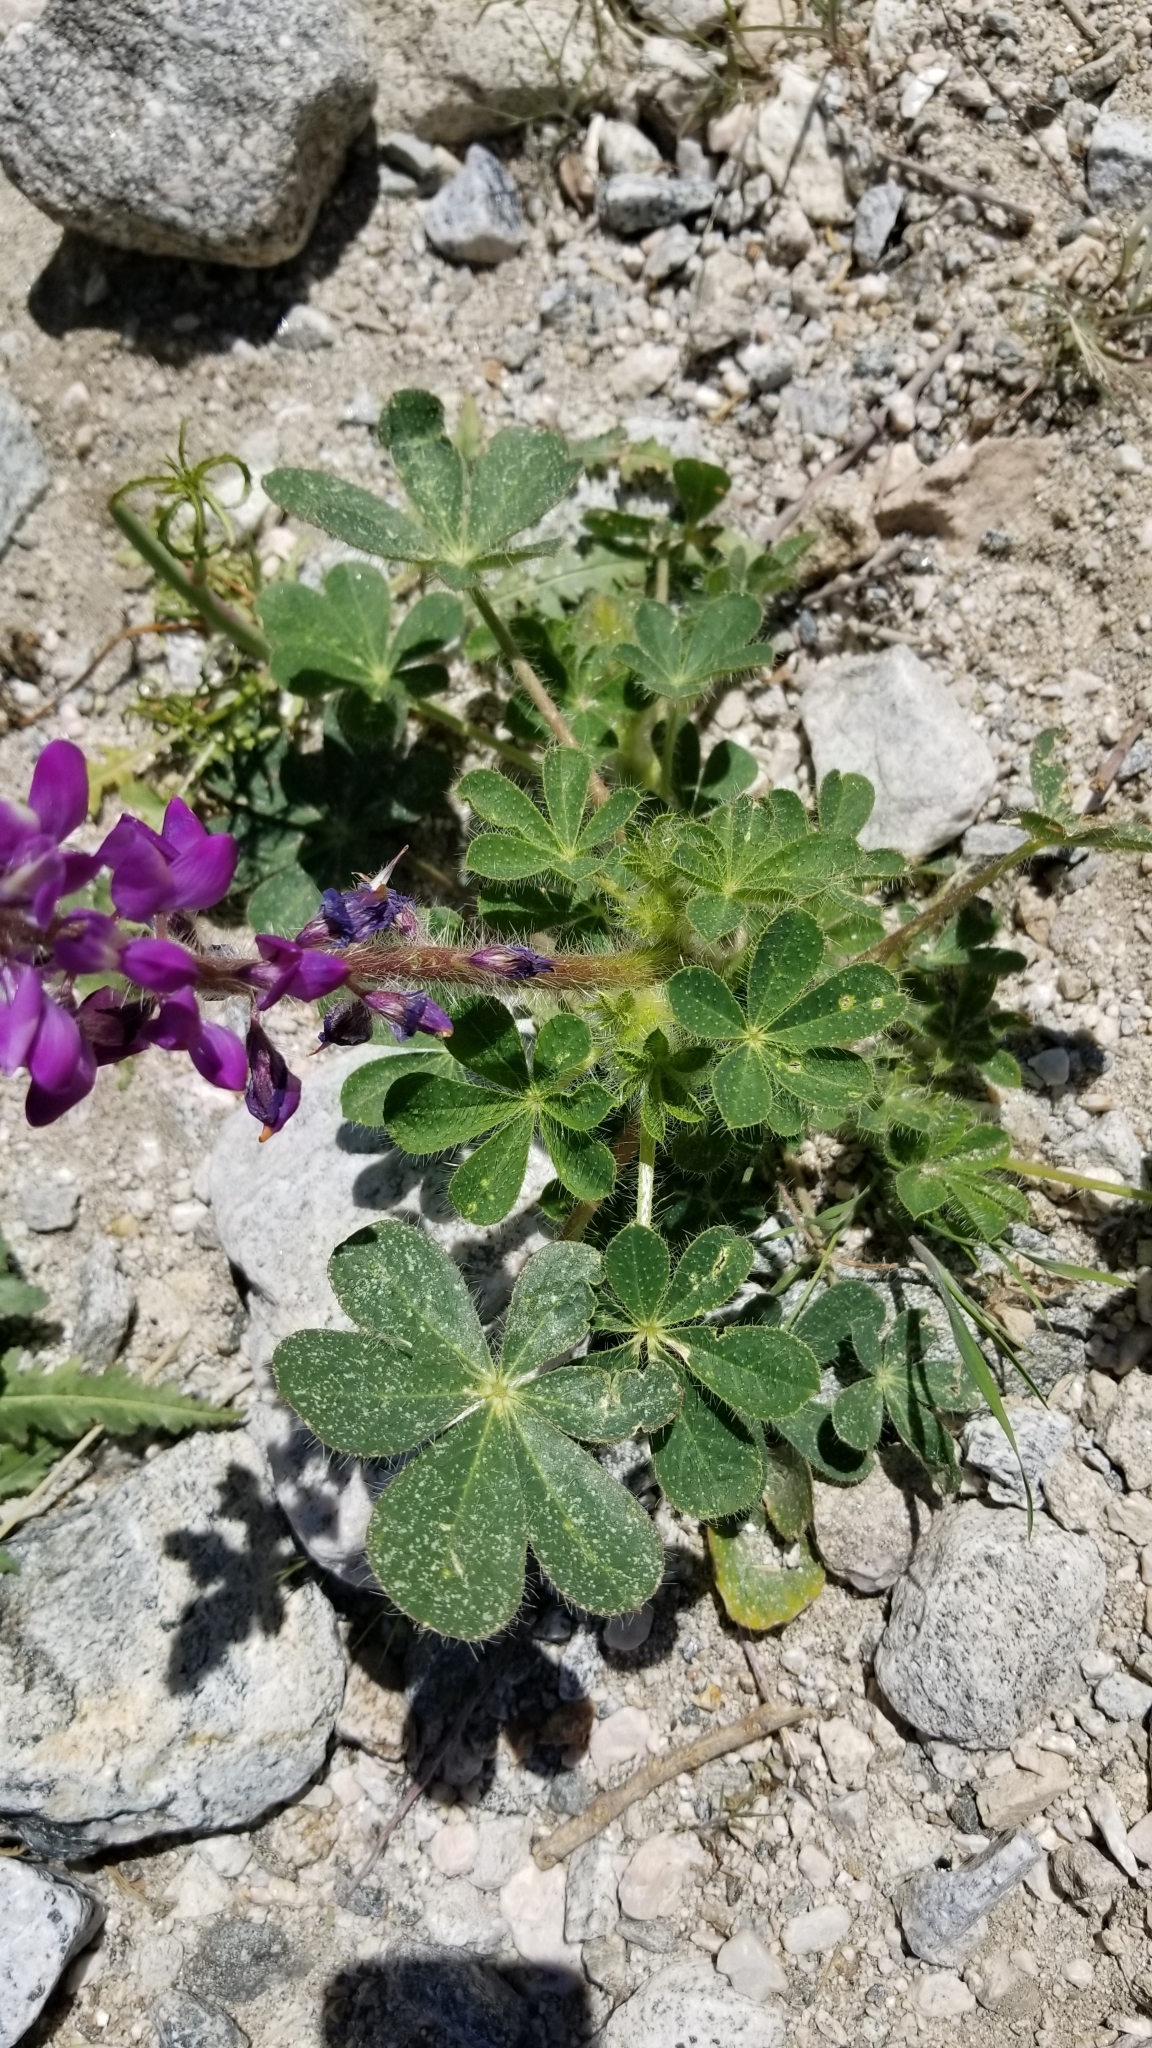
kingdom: Plantae
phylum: Tracheophyta
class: Magnoliopsida
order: Fabales
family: Fabaceae
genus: Lupinus
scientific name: Lupinus hirsutissimus
